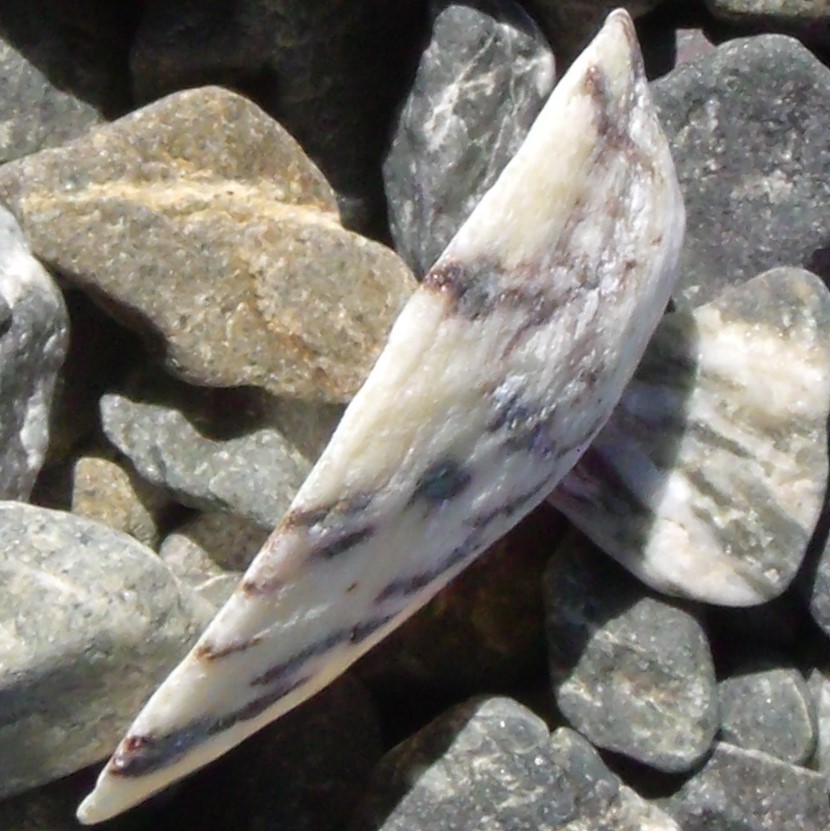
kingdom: Animalia
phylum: Mollusca
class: Gastropoda
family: Nacellidae
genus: Cellana
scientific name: Cellana radians
